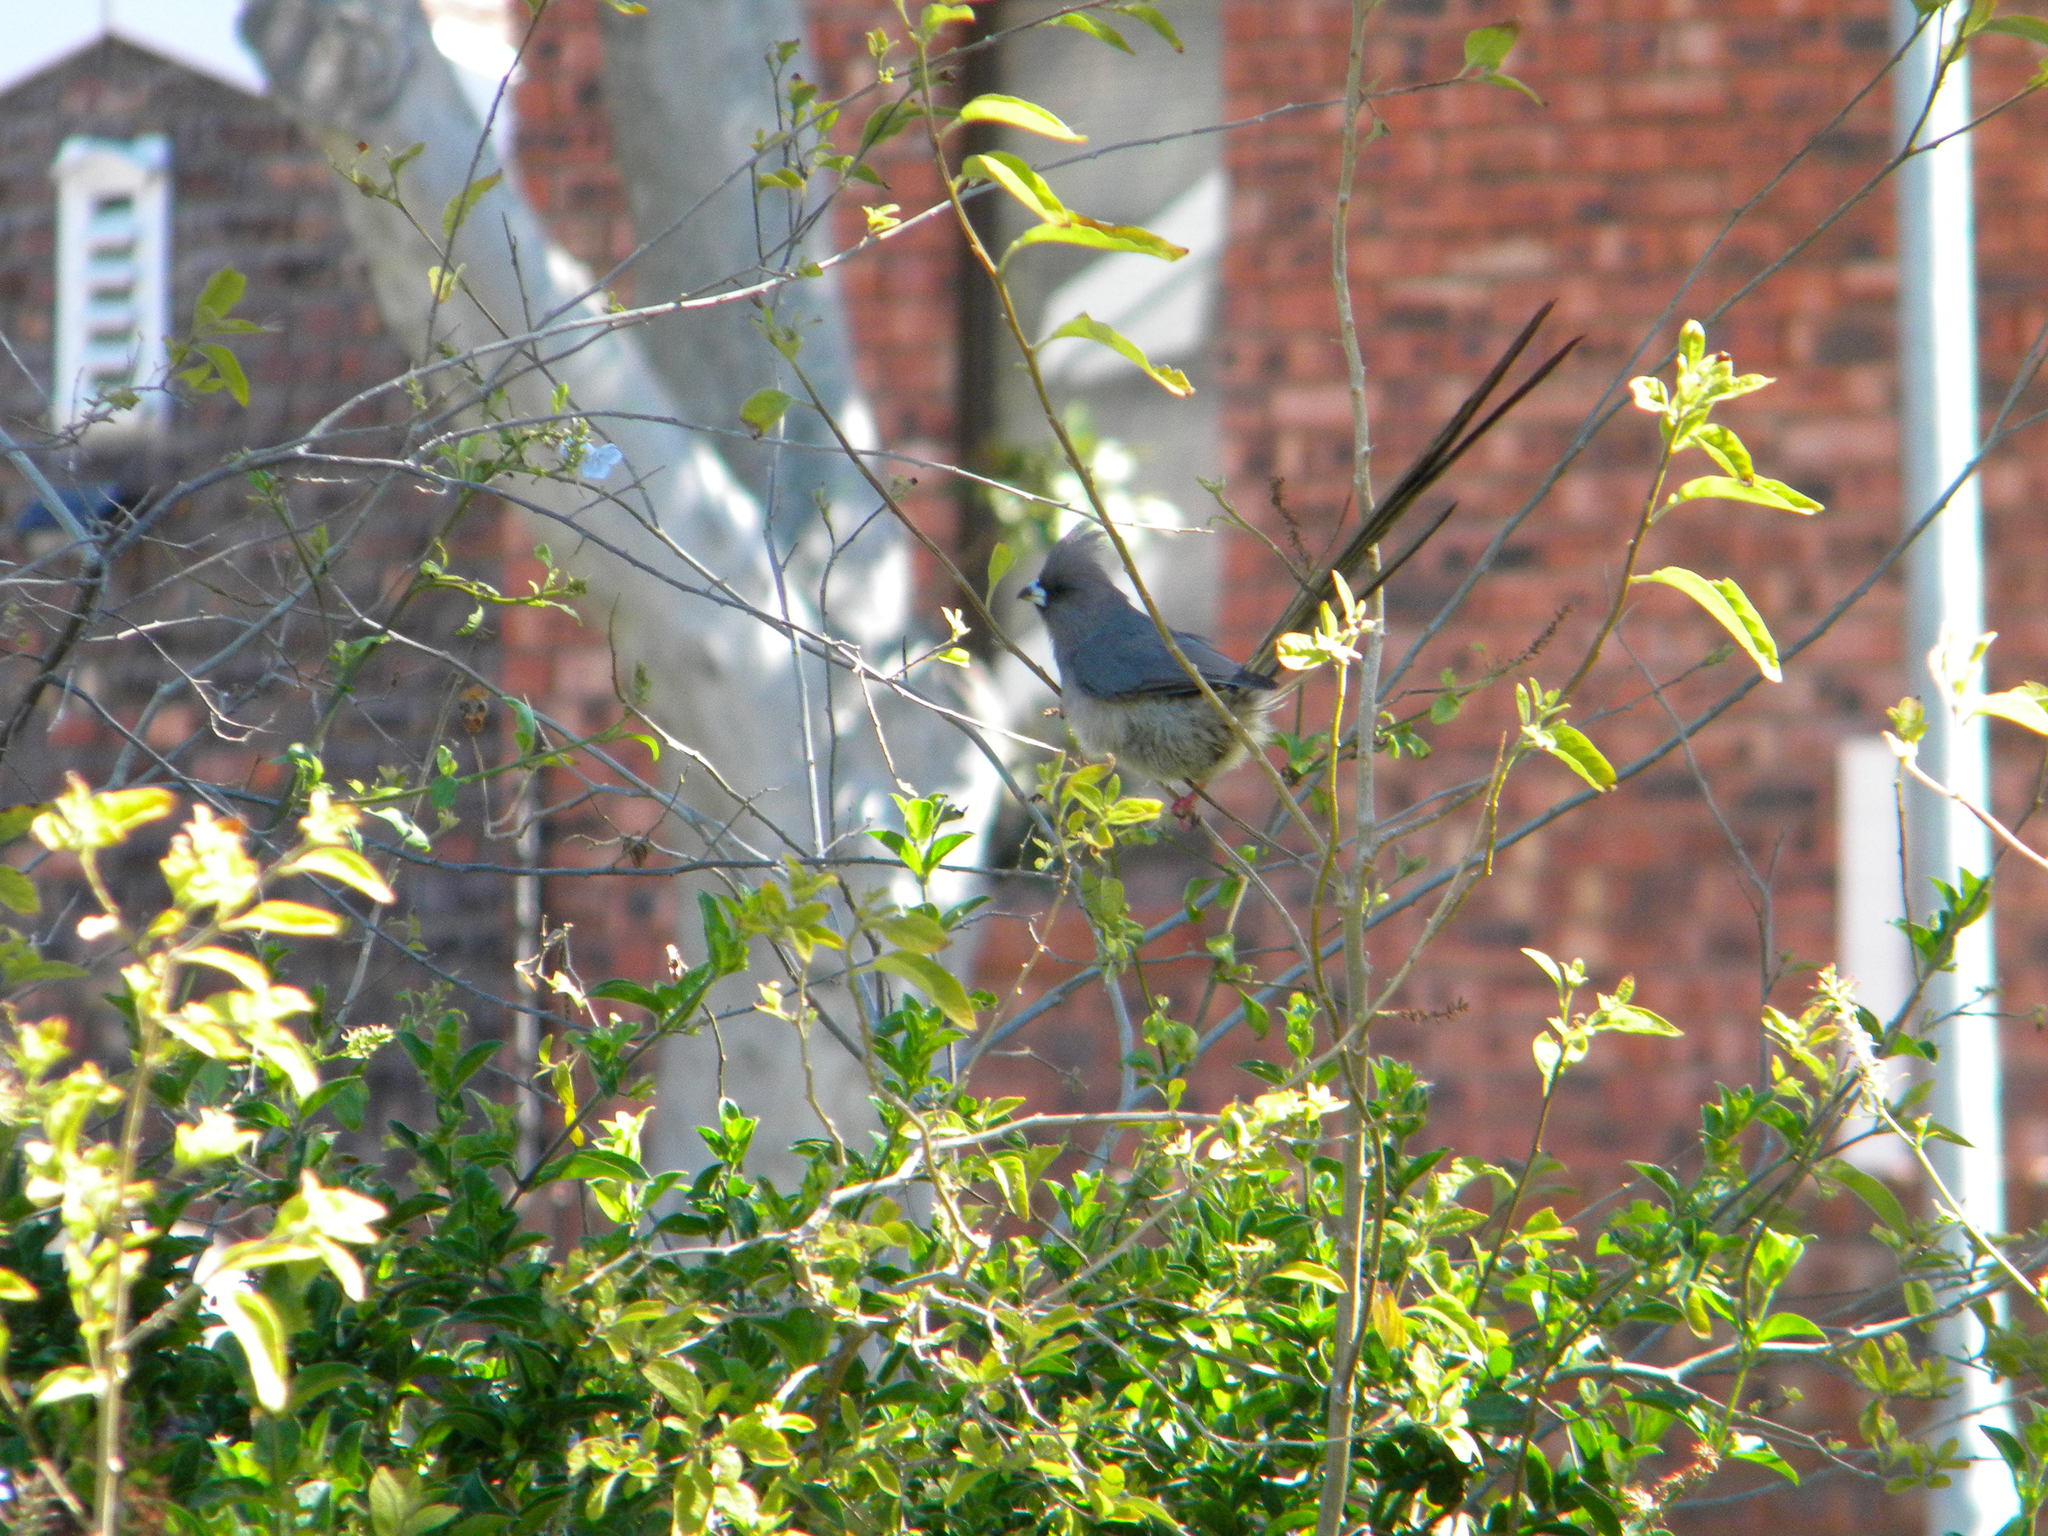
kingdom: Animalia
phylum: Chordata
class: Aves
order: Coliiformes
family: Coliidae
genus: Colius
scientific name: Colius colius
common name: White-backed mousebird
